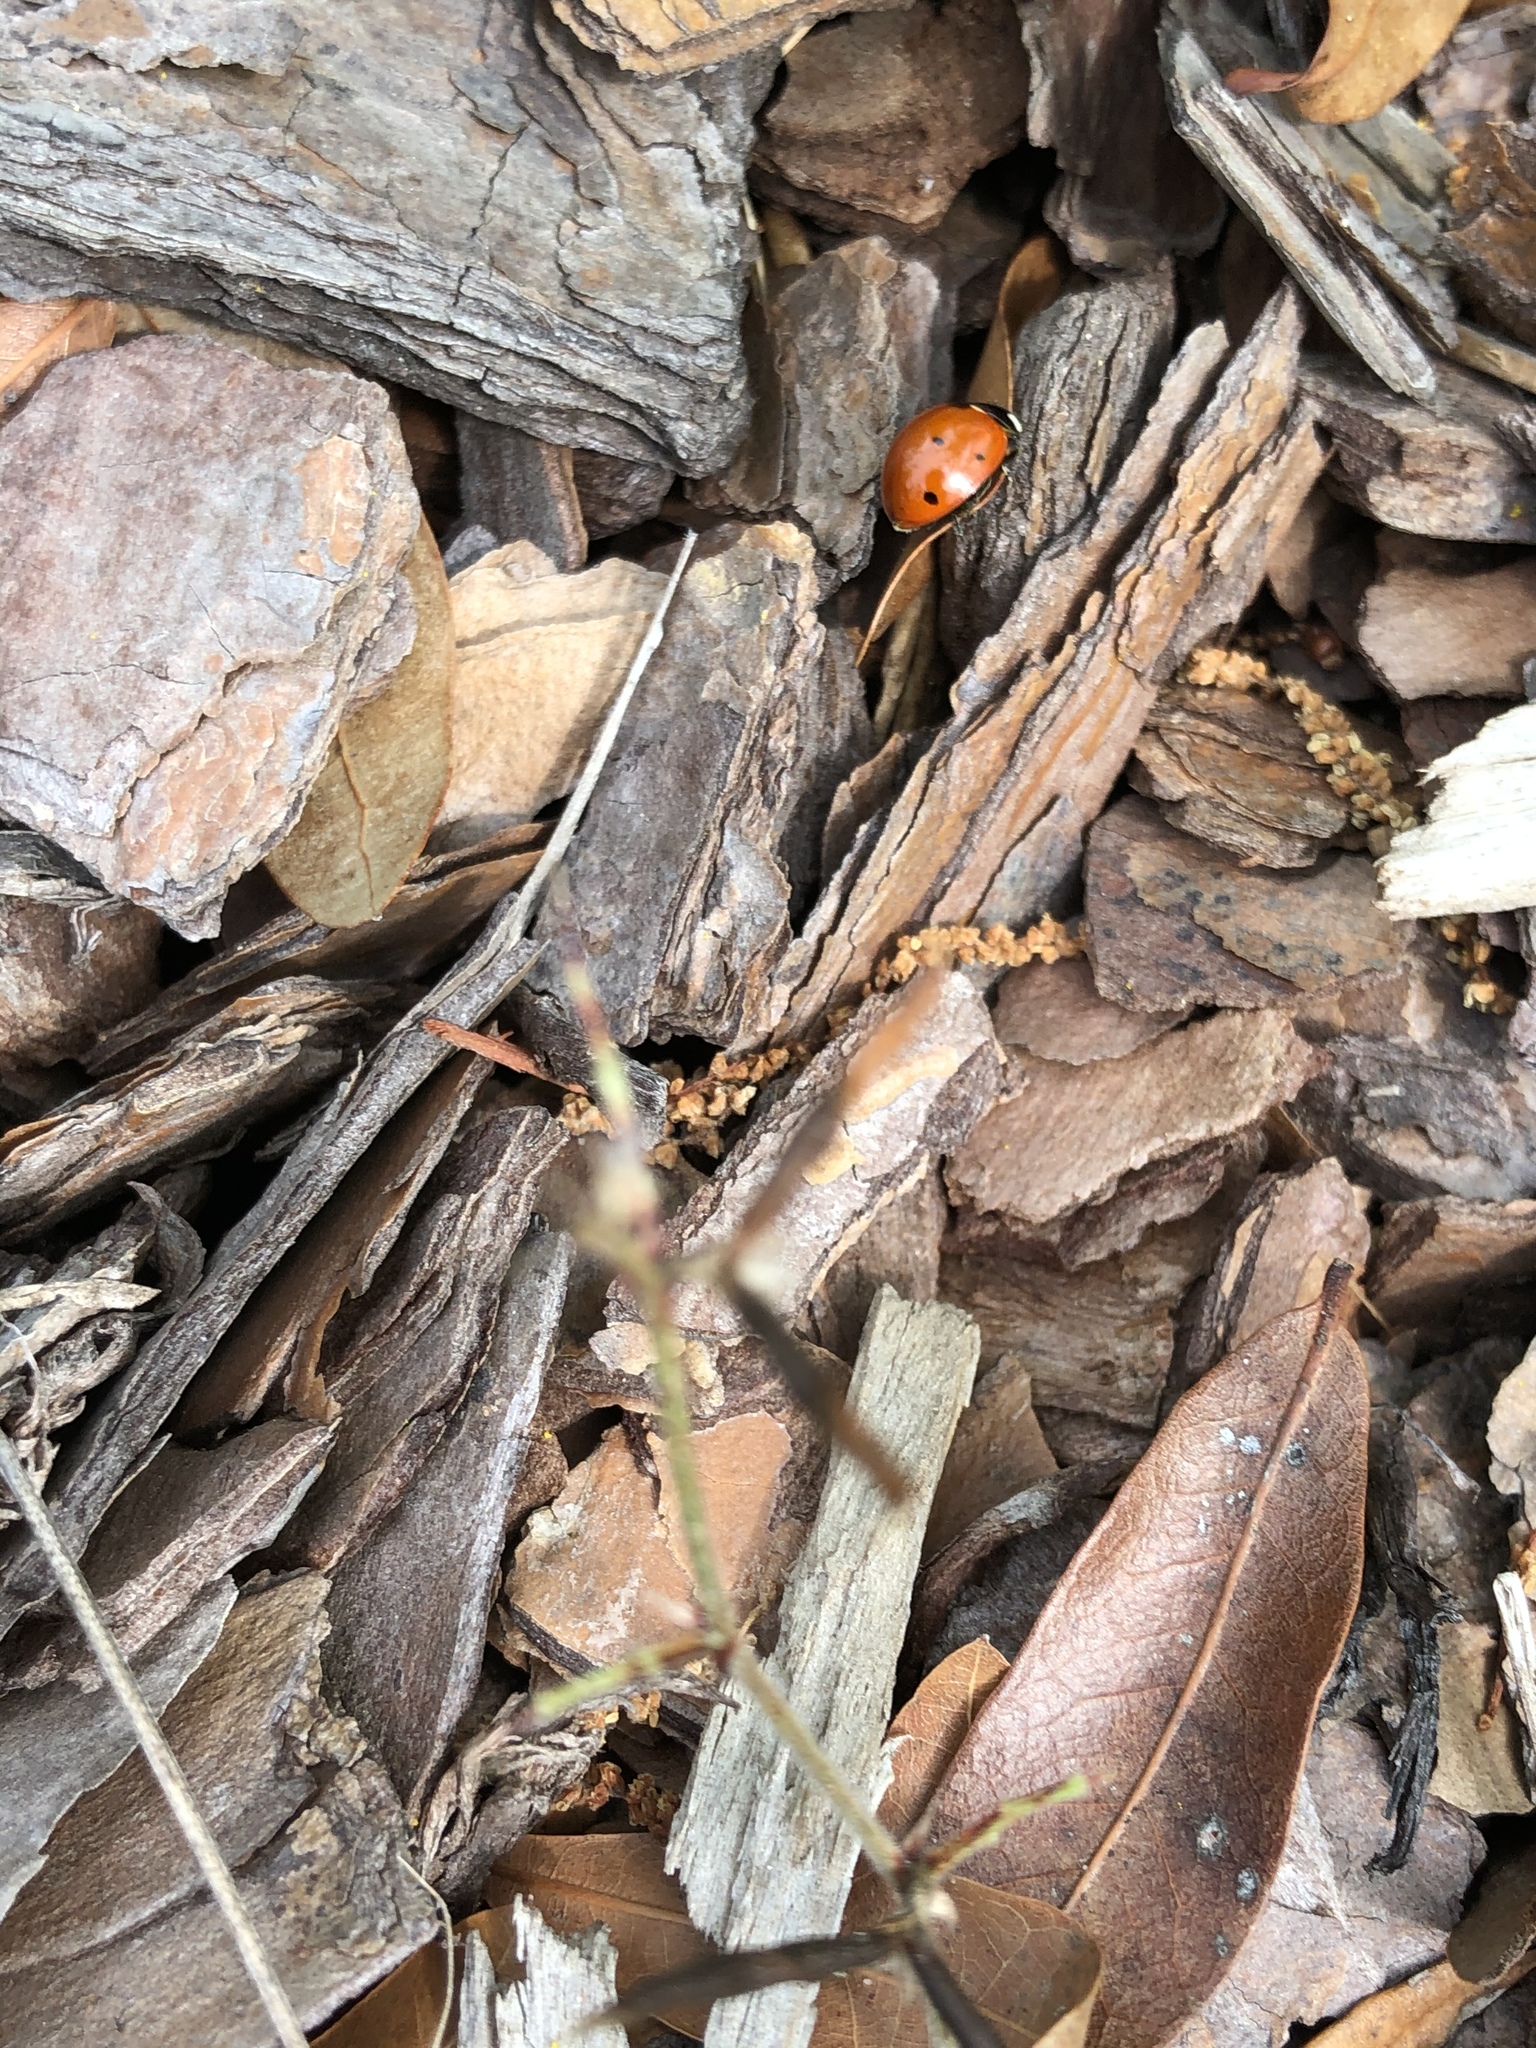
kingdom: Animalia
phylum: Arthropoda
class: Insecta
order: Coleoptera
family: Coccinellidae
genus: Coccinella
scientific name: Coccinella septempunctata
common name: Sevenspotted lady beetle
